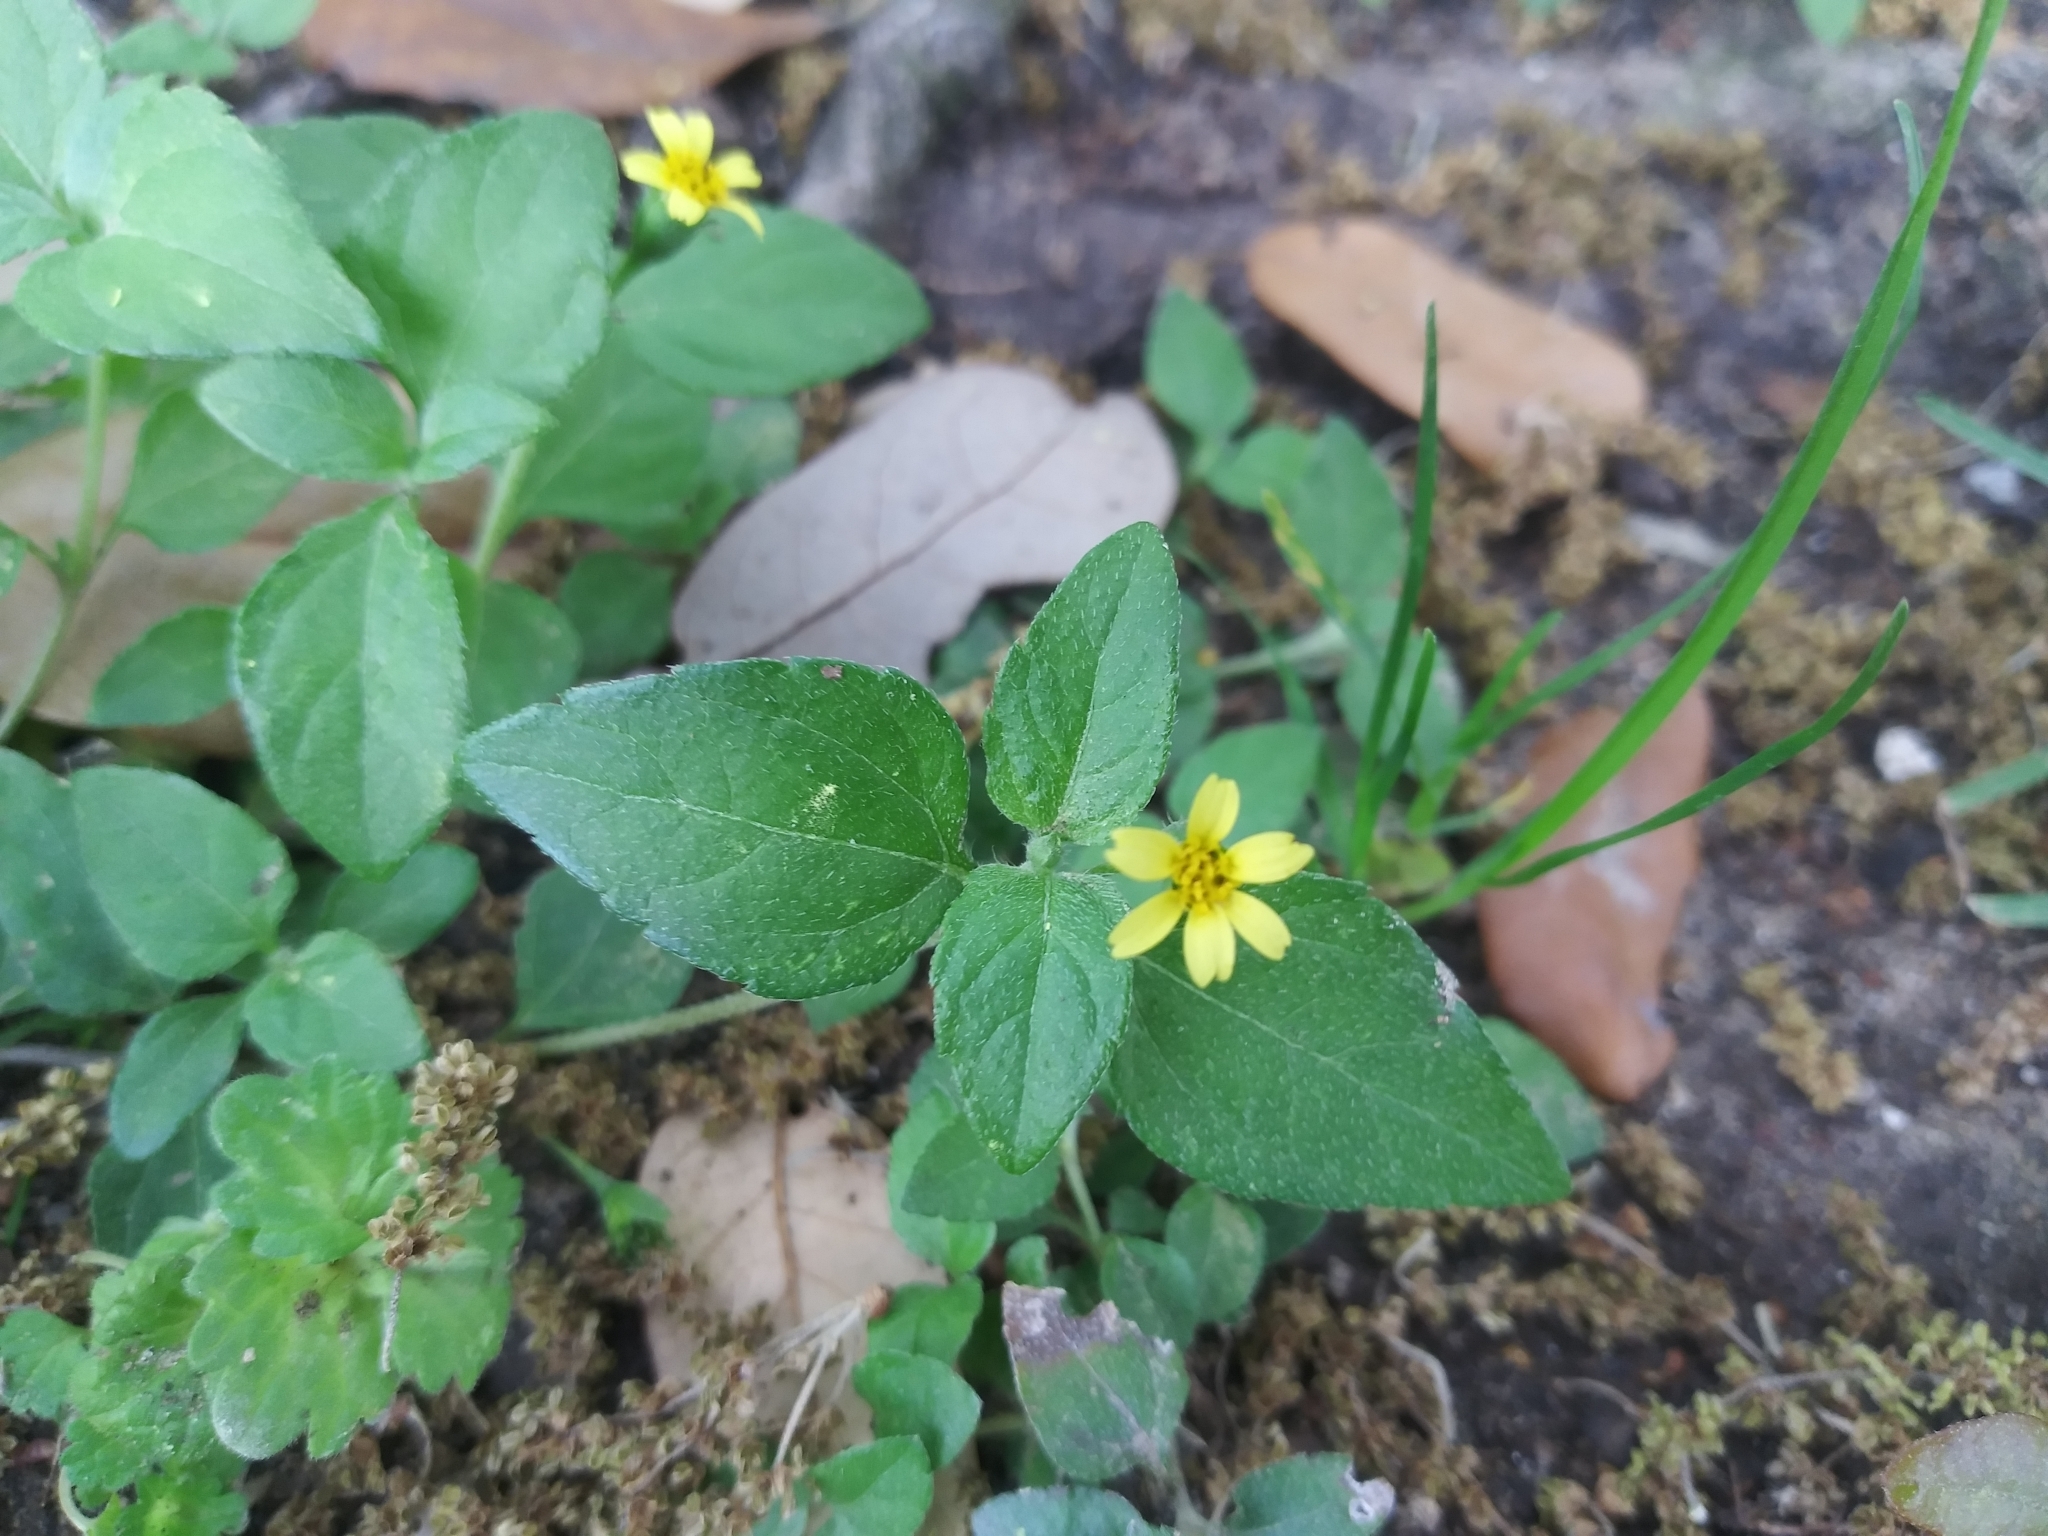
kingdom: Plantae
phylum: Tracheophyta
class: Magnoliopsida
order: Asterales
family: Asteraceae
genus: Calyptocarpus
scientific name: Calyptocarpus vialis
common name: Straggler daisy
